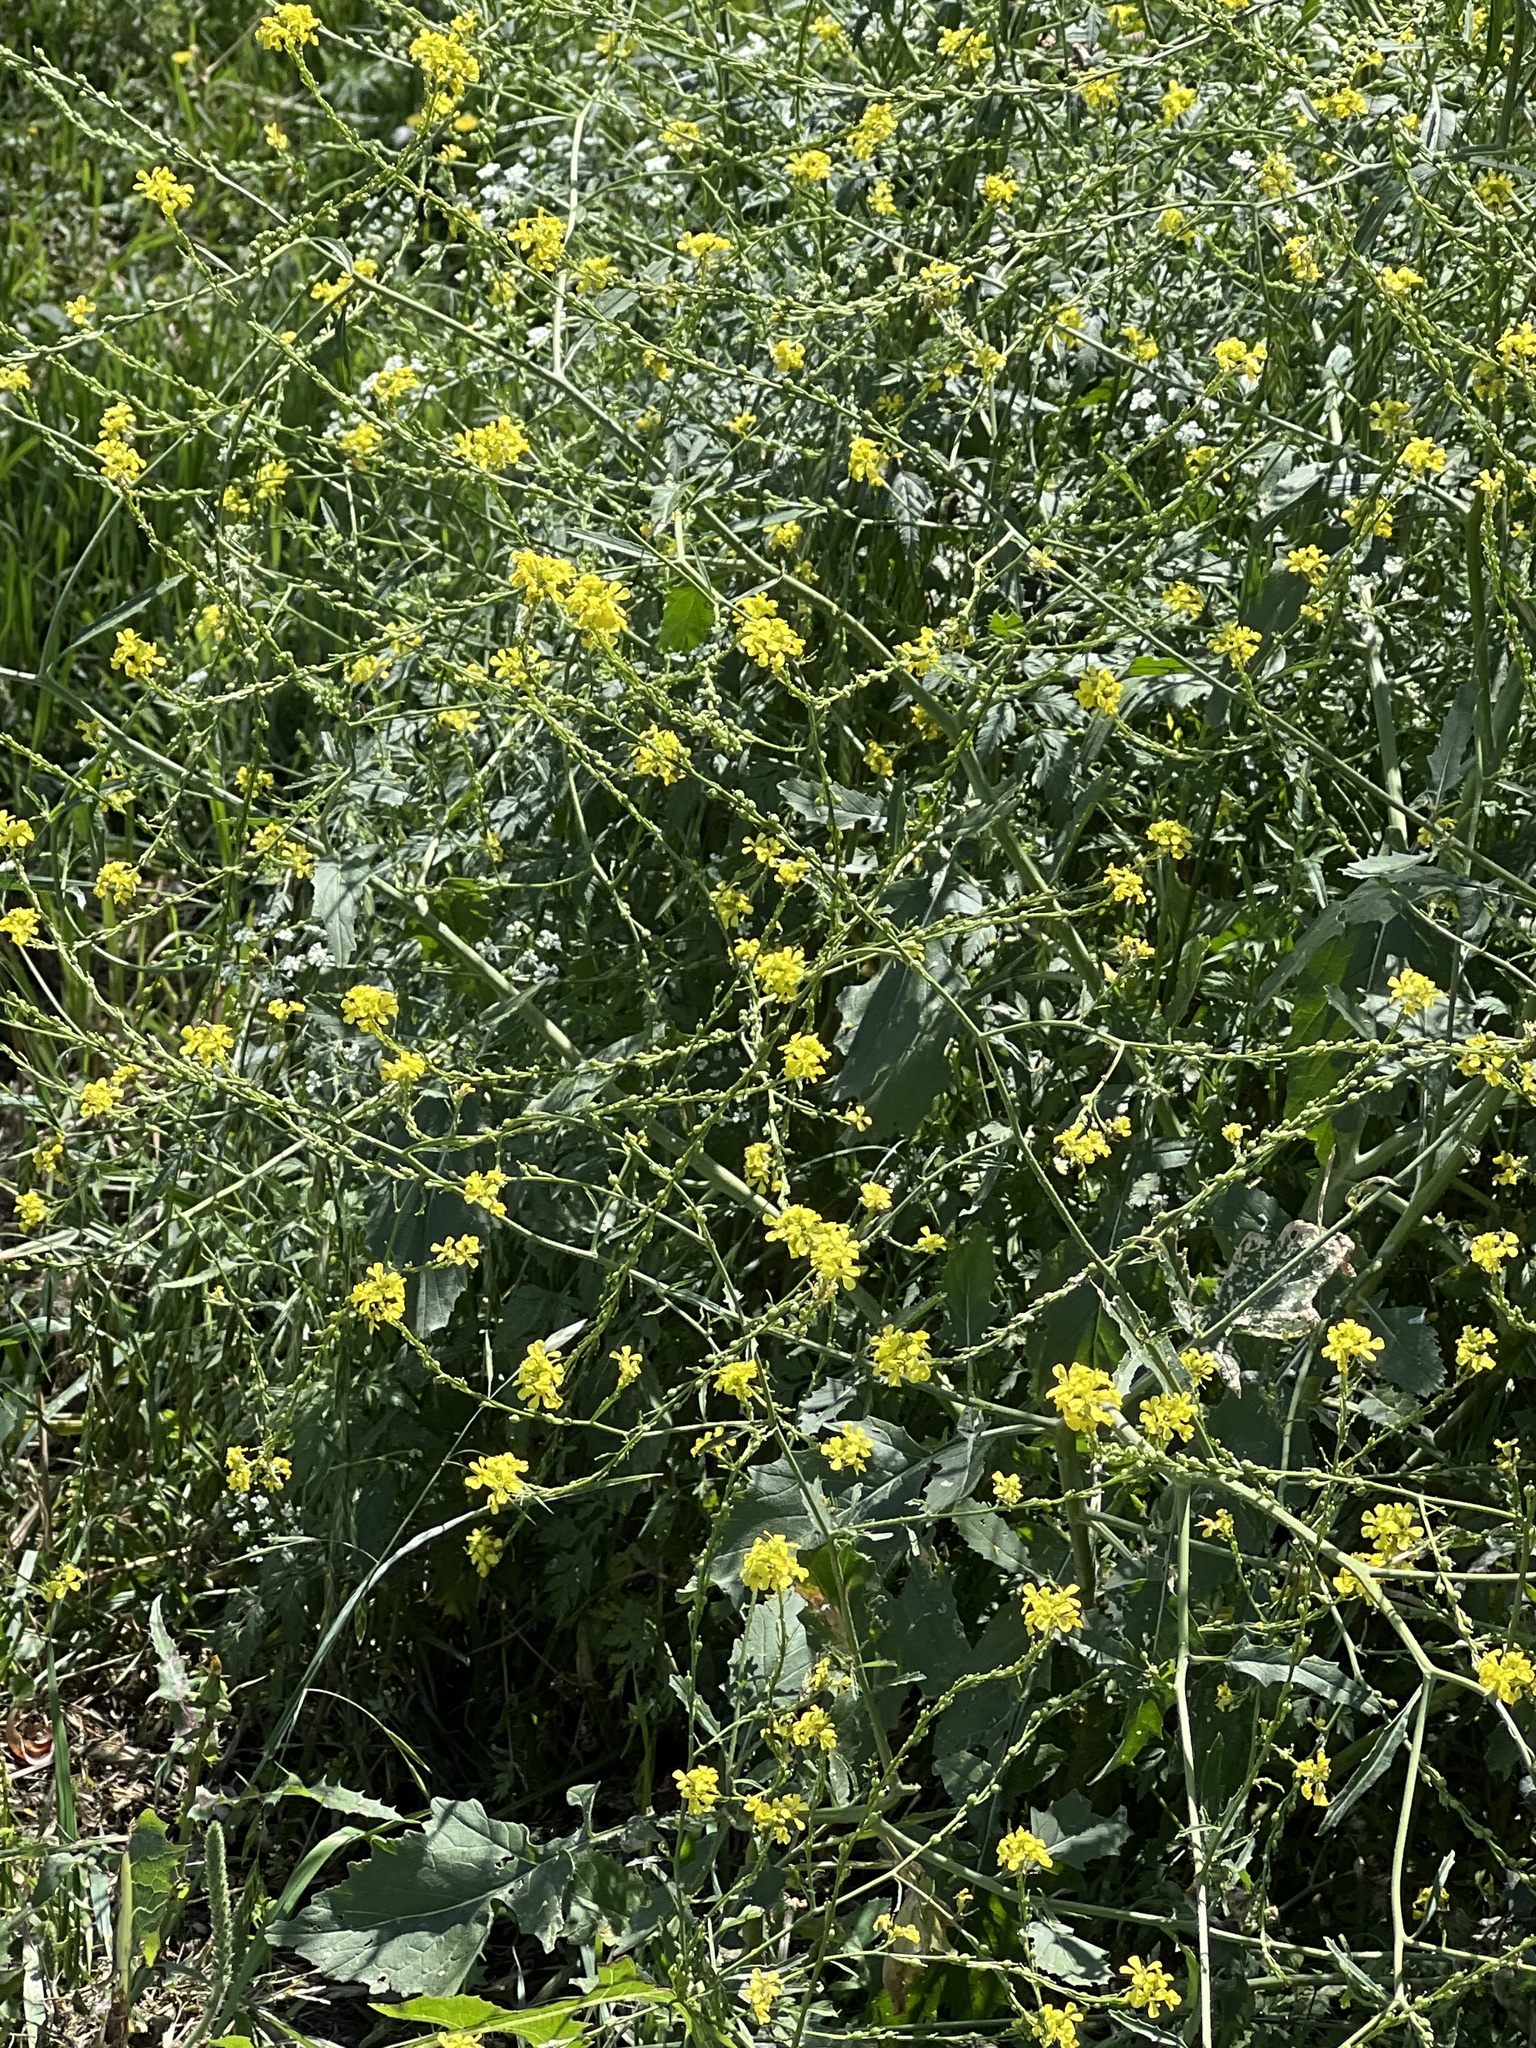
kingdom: Plantae
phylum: Tracheophyta
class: Magnoliopsida
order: Brassicales
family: Brassicaceae
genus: Rapistrum
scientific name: Rapistrum rugosum
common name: Annual bastardcabbage
